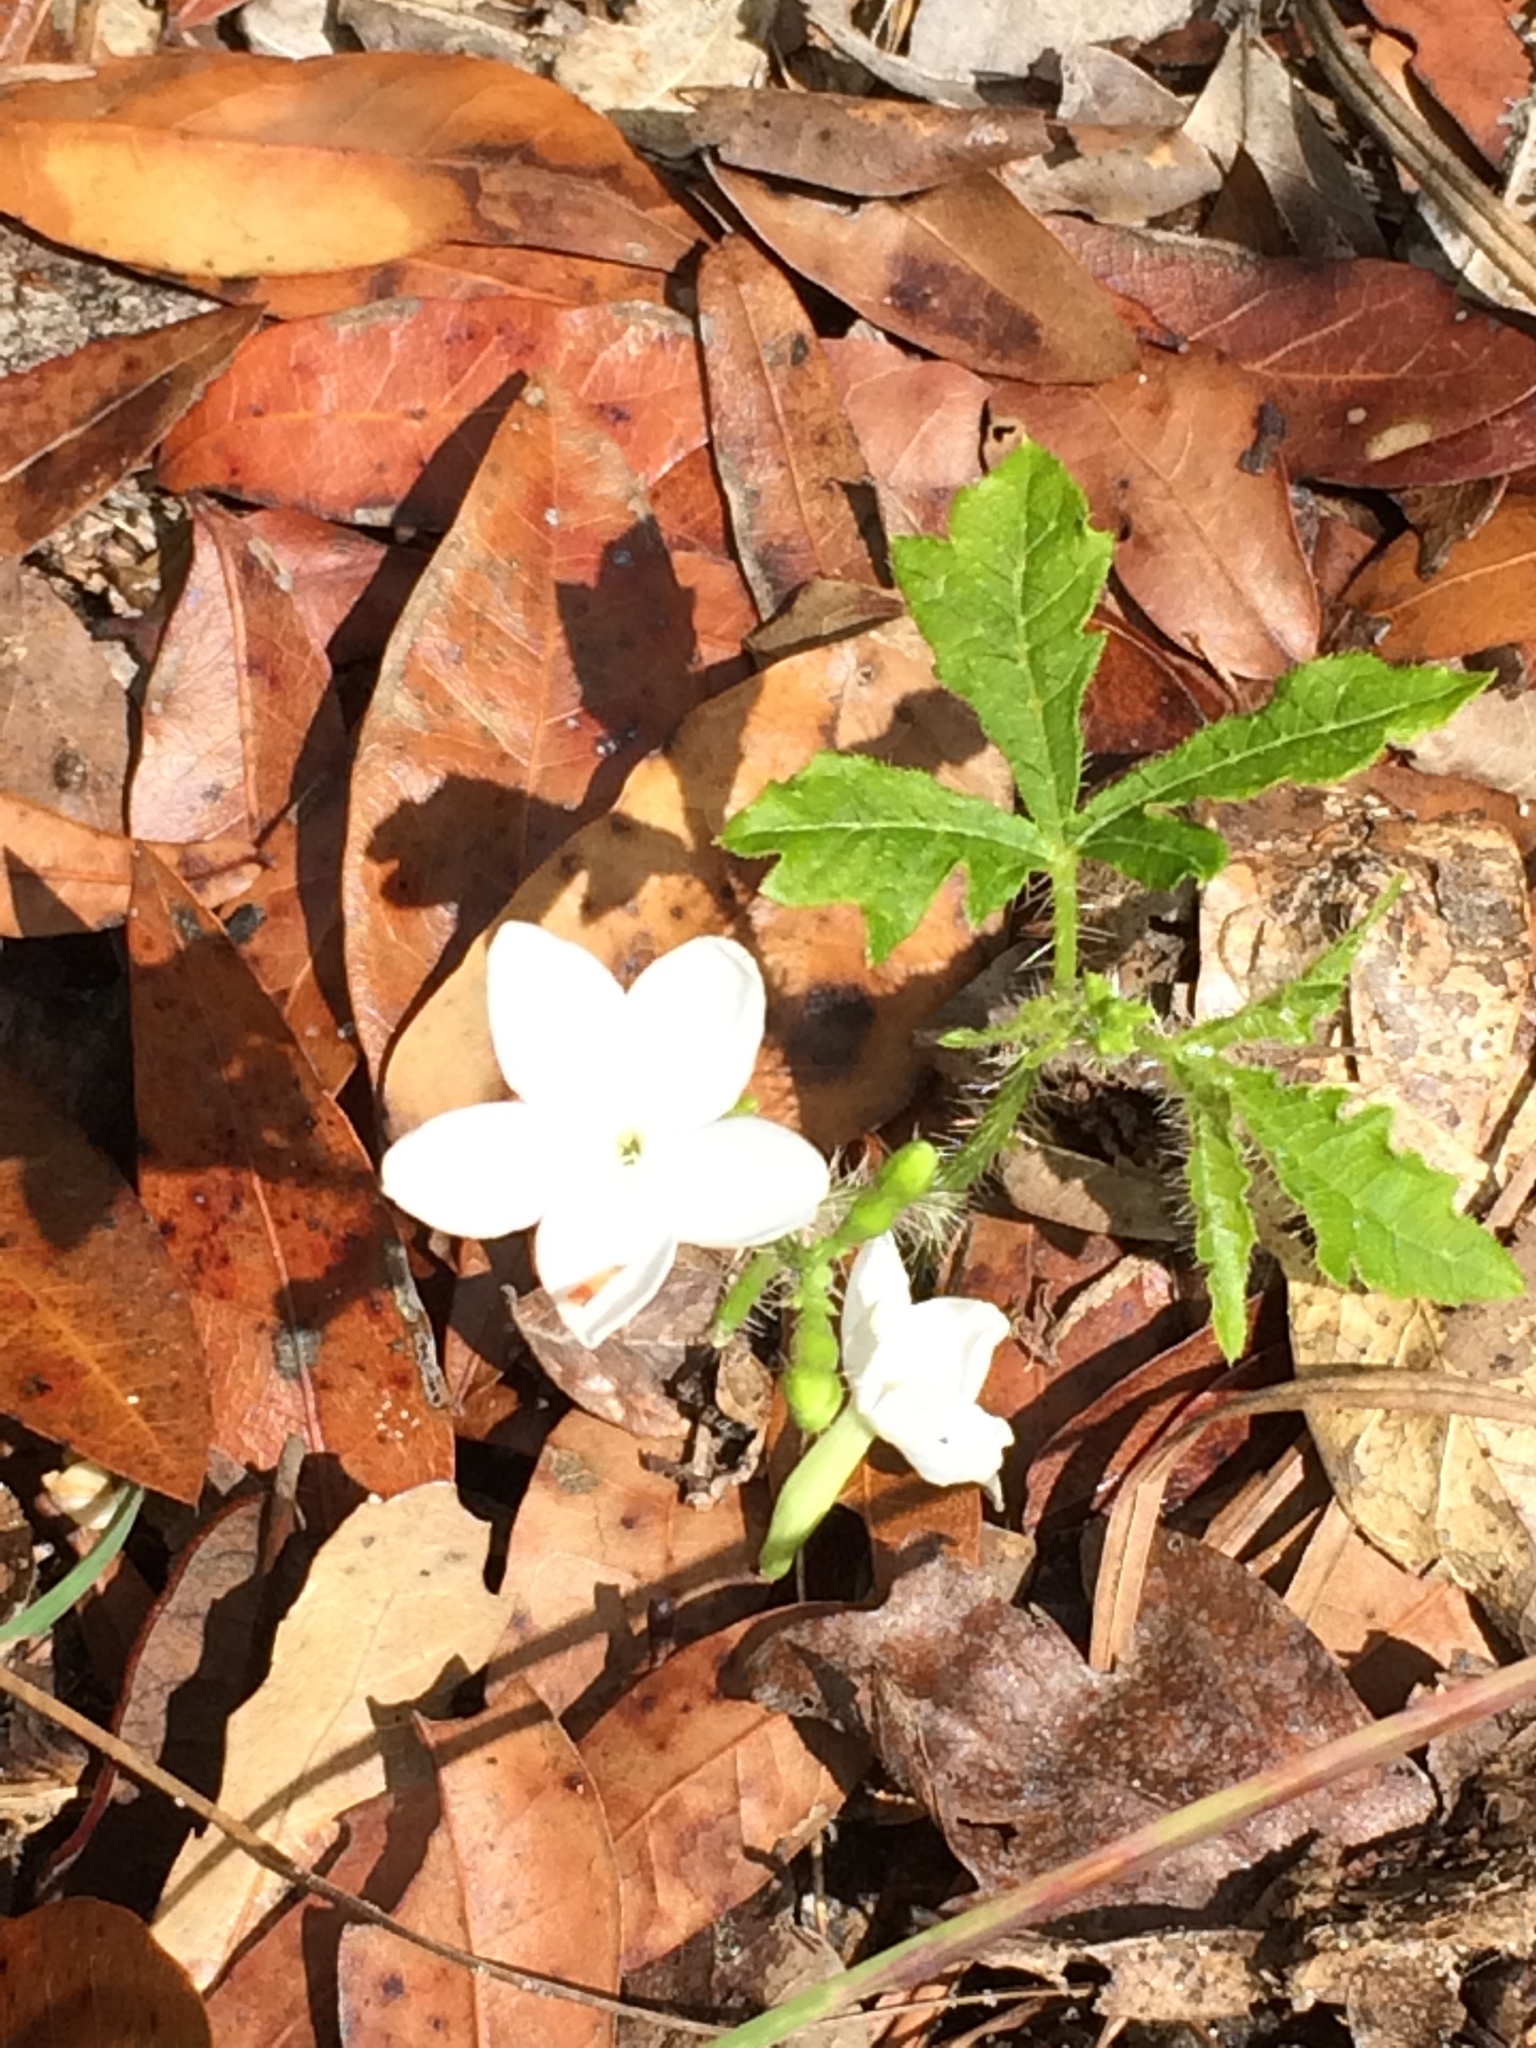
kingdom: Plantae
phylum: Tracheophyta
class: Magnoliopsida
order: Malpighiales
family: Euphorbiaceae
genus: Cnidoscolus
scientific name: Cnidoscolus stimulosus
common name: Bull-nettle
